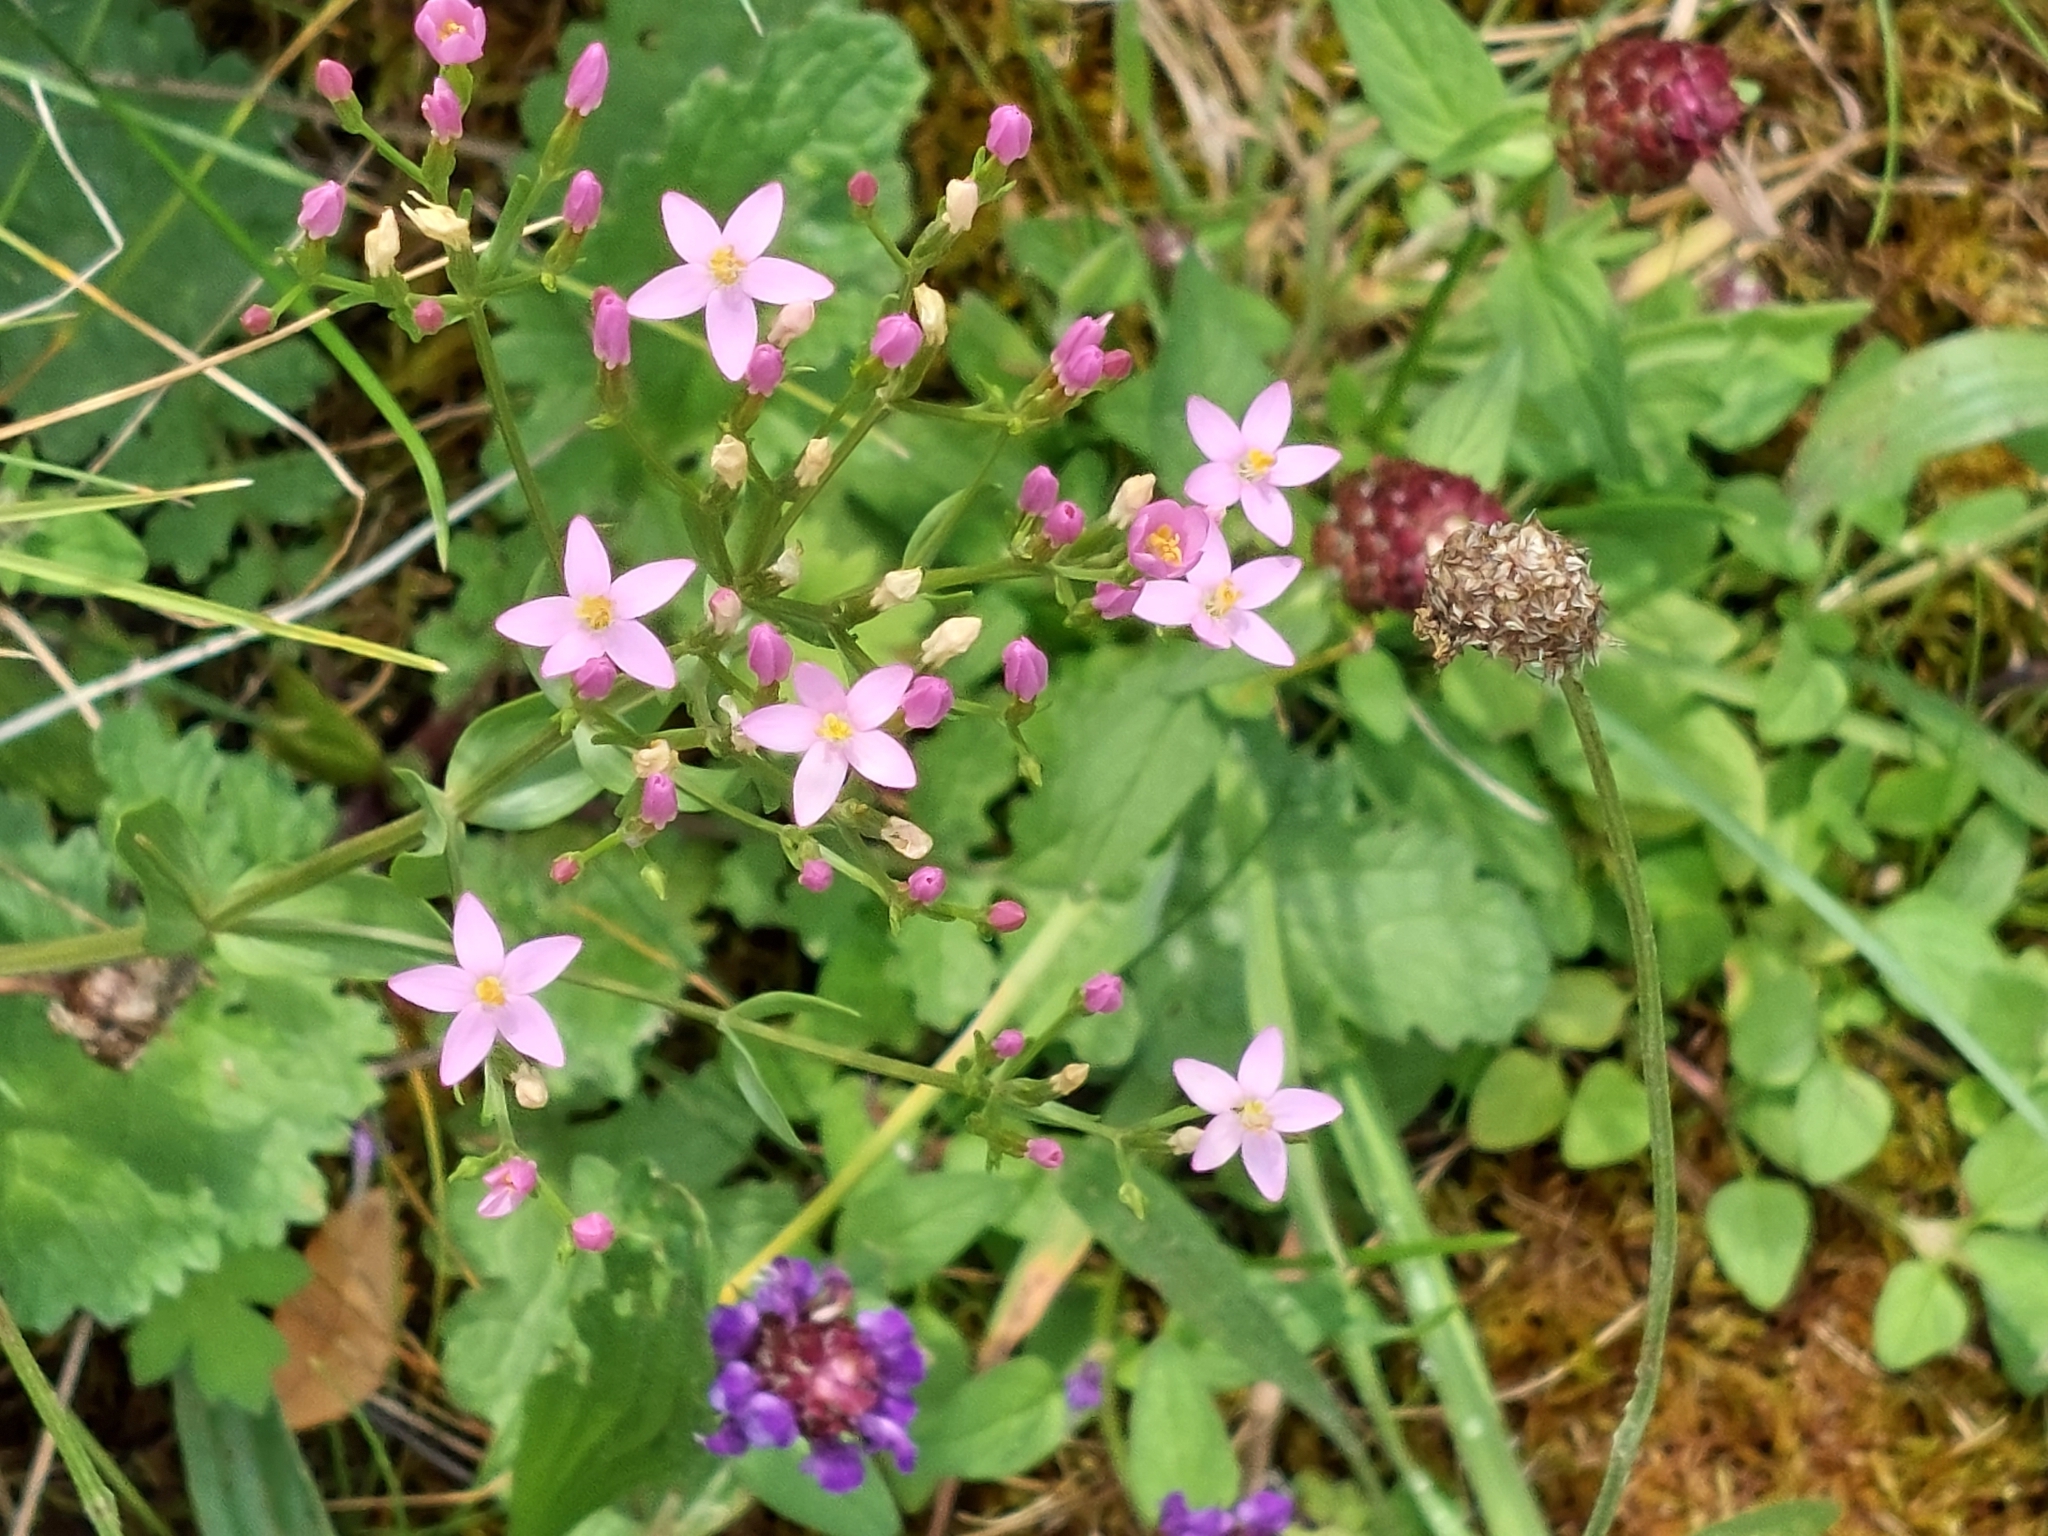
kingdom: Plantae
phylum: Tracheophyta
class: Magnoliopsida
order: Gentianales
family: Gentianaceae
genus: Centaurium
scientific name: Centaurium erythraea
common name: Common centaury
